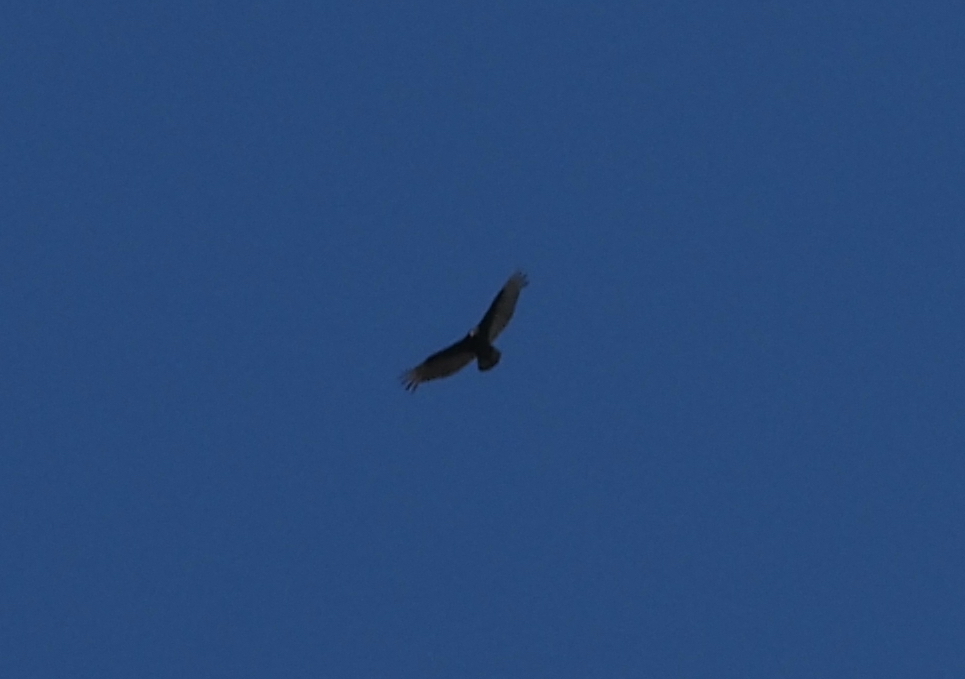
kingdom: Animalia
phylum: Chordata
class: Aves
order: Accipitriformes
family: Cathartidae
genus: Cathartes
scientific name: Cathartes aura
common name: Turkey vulture
